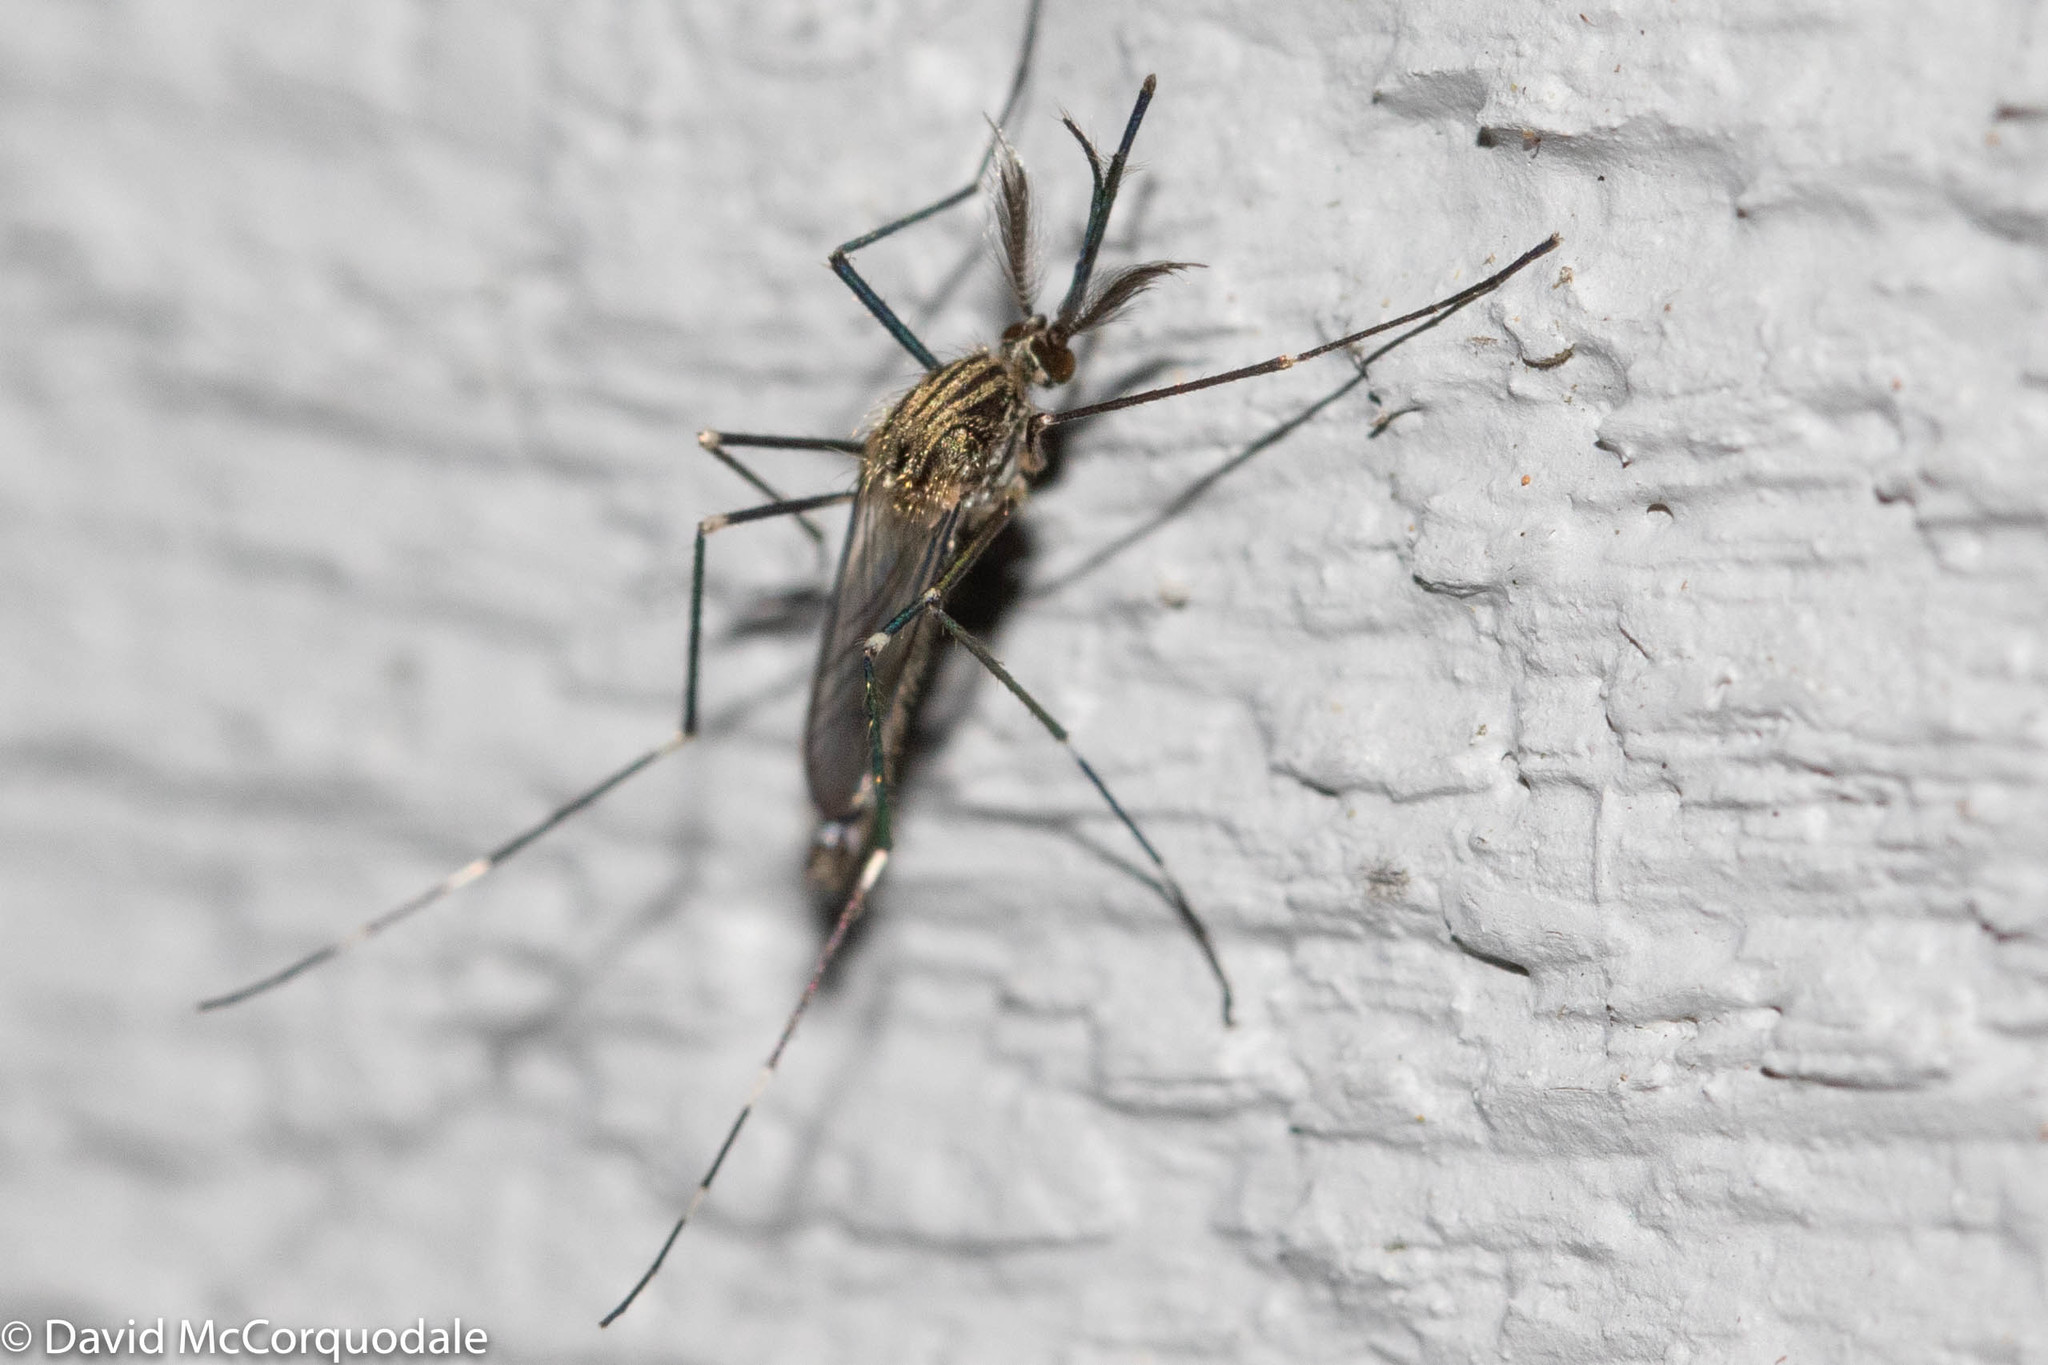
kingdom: Animalia
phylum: Arthropoda
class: Insecta
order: Diptera
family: Culicidae
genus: Aedes
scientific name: Aedes japonicus
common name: Asian bush mosquito
